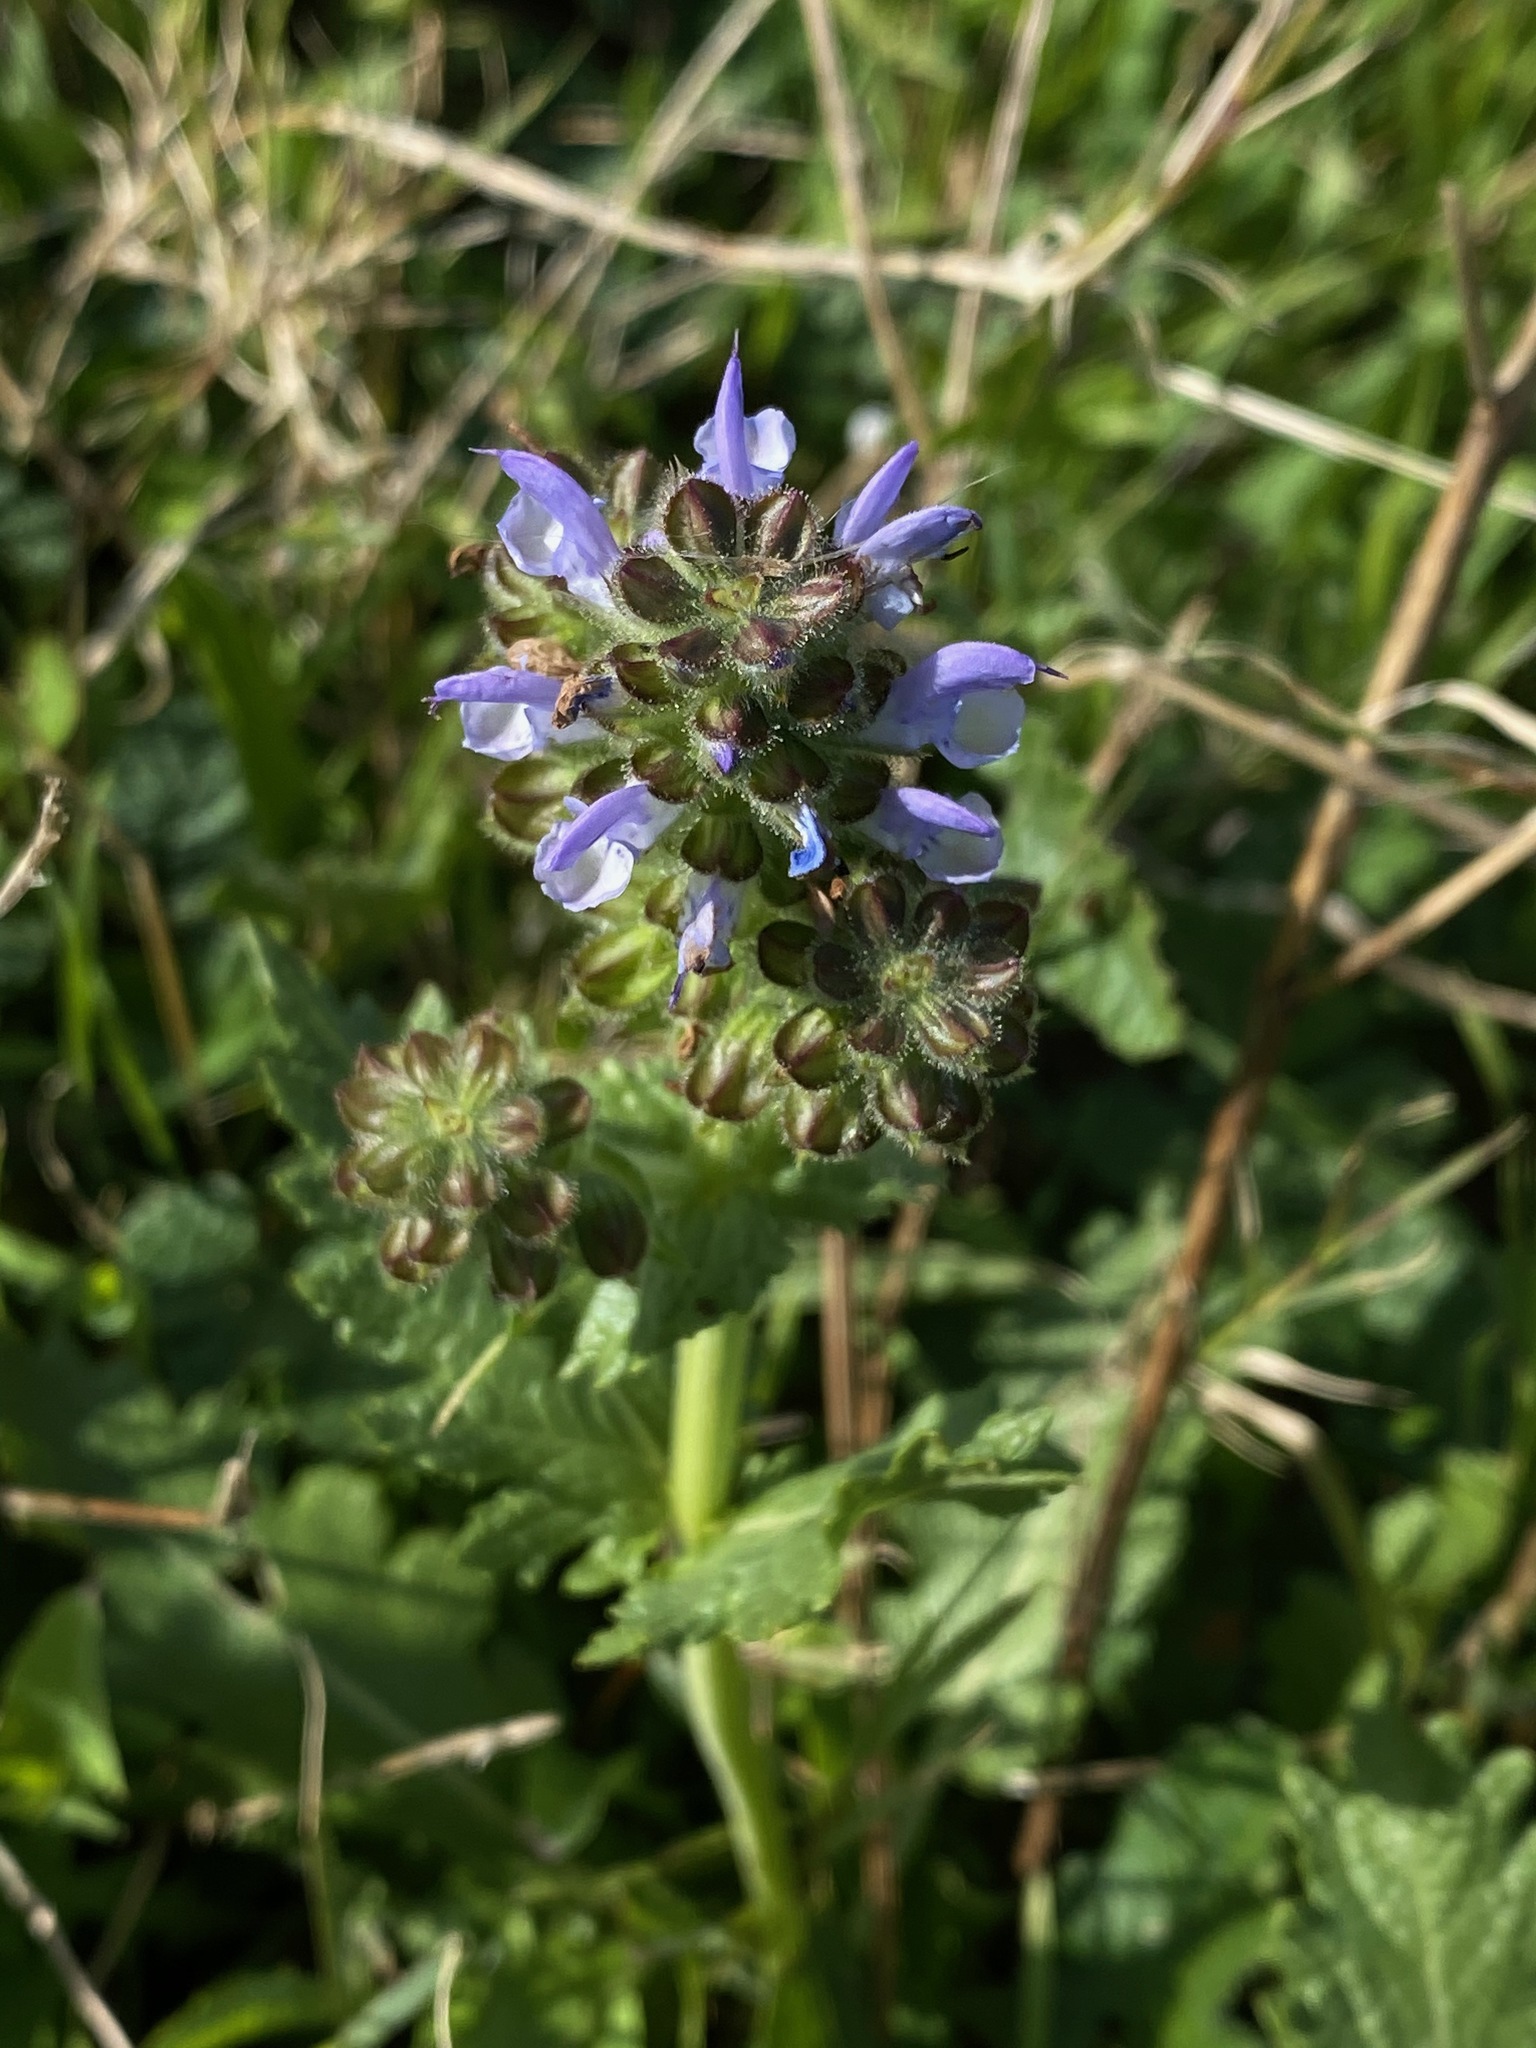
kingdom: Plantae
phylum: Tracheophyta
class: Magnoliopsida
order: Lamiales
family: Lamiaceae
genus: Salvia
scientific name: Salvia verbenaca
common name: Wild clary
